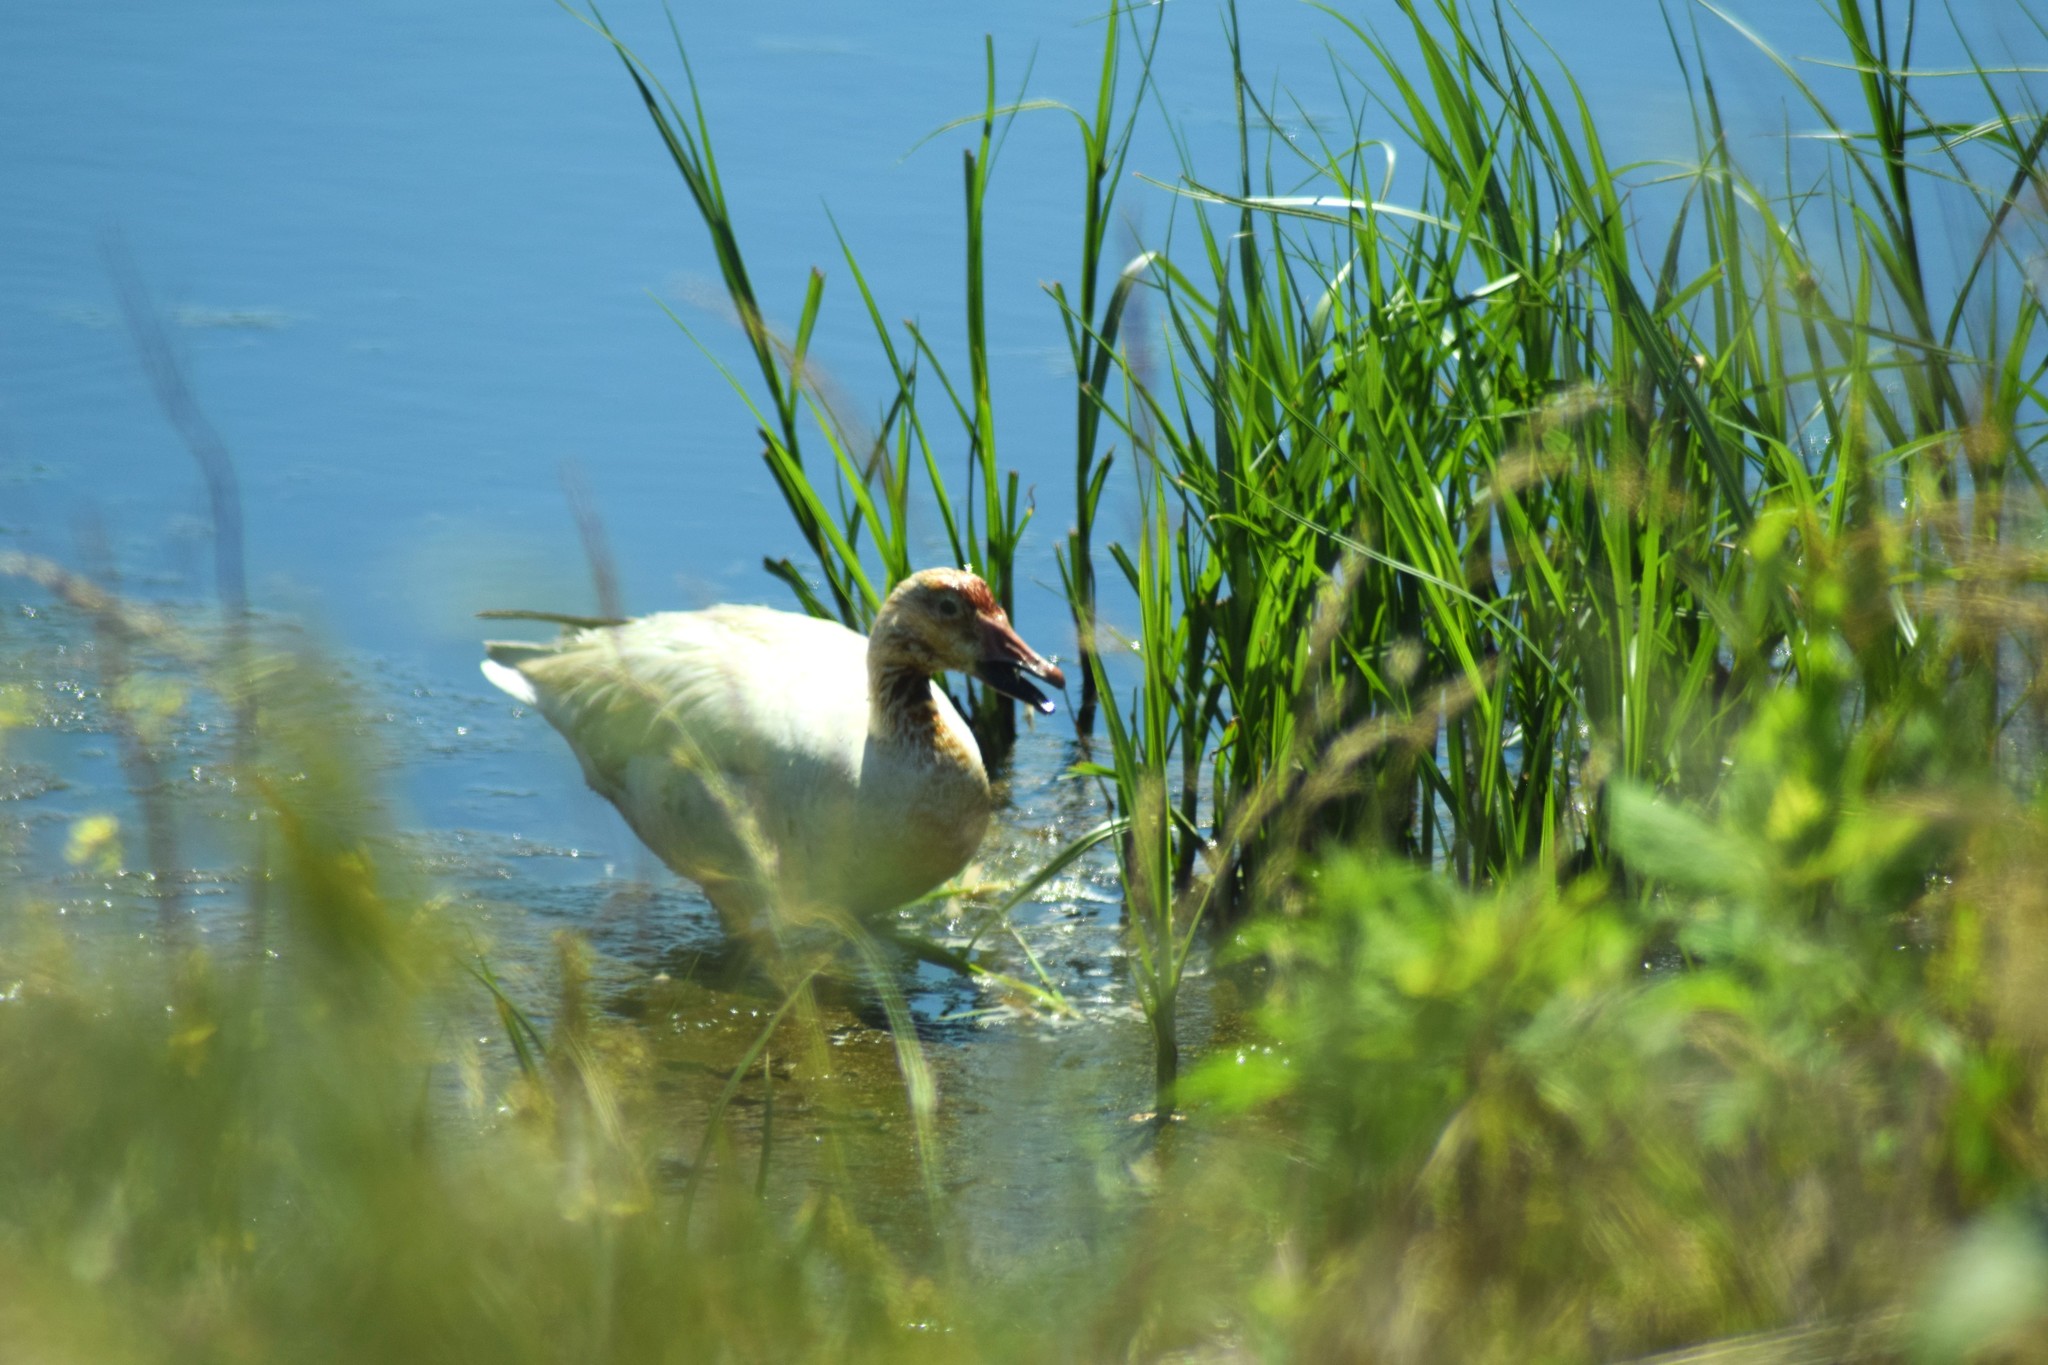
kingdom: Animalia
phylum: Chordata
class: Aves
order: Anseriformes
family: Anatidae
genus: Anser
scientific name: Anser caerulescens
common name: Snow goose
